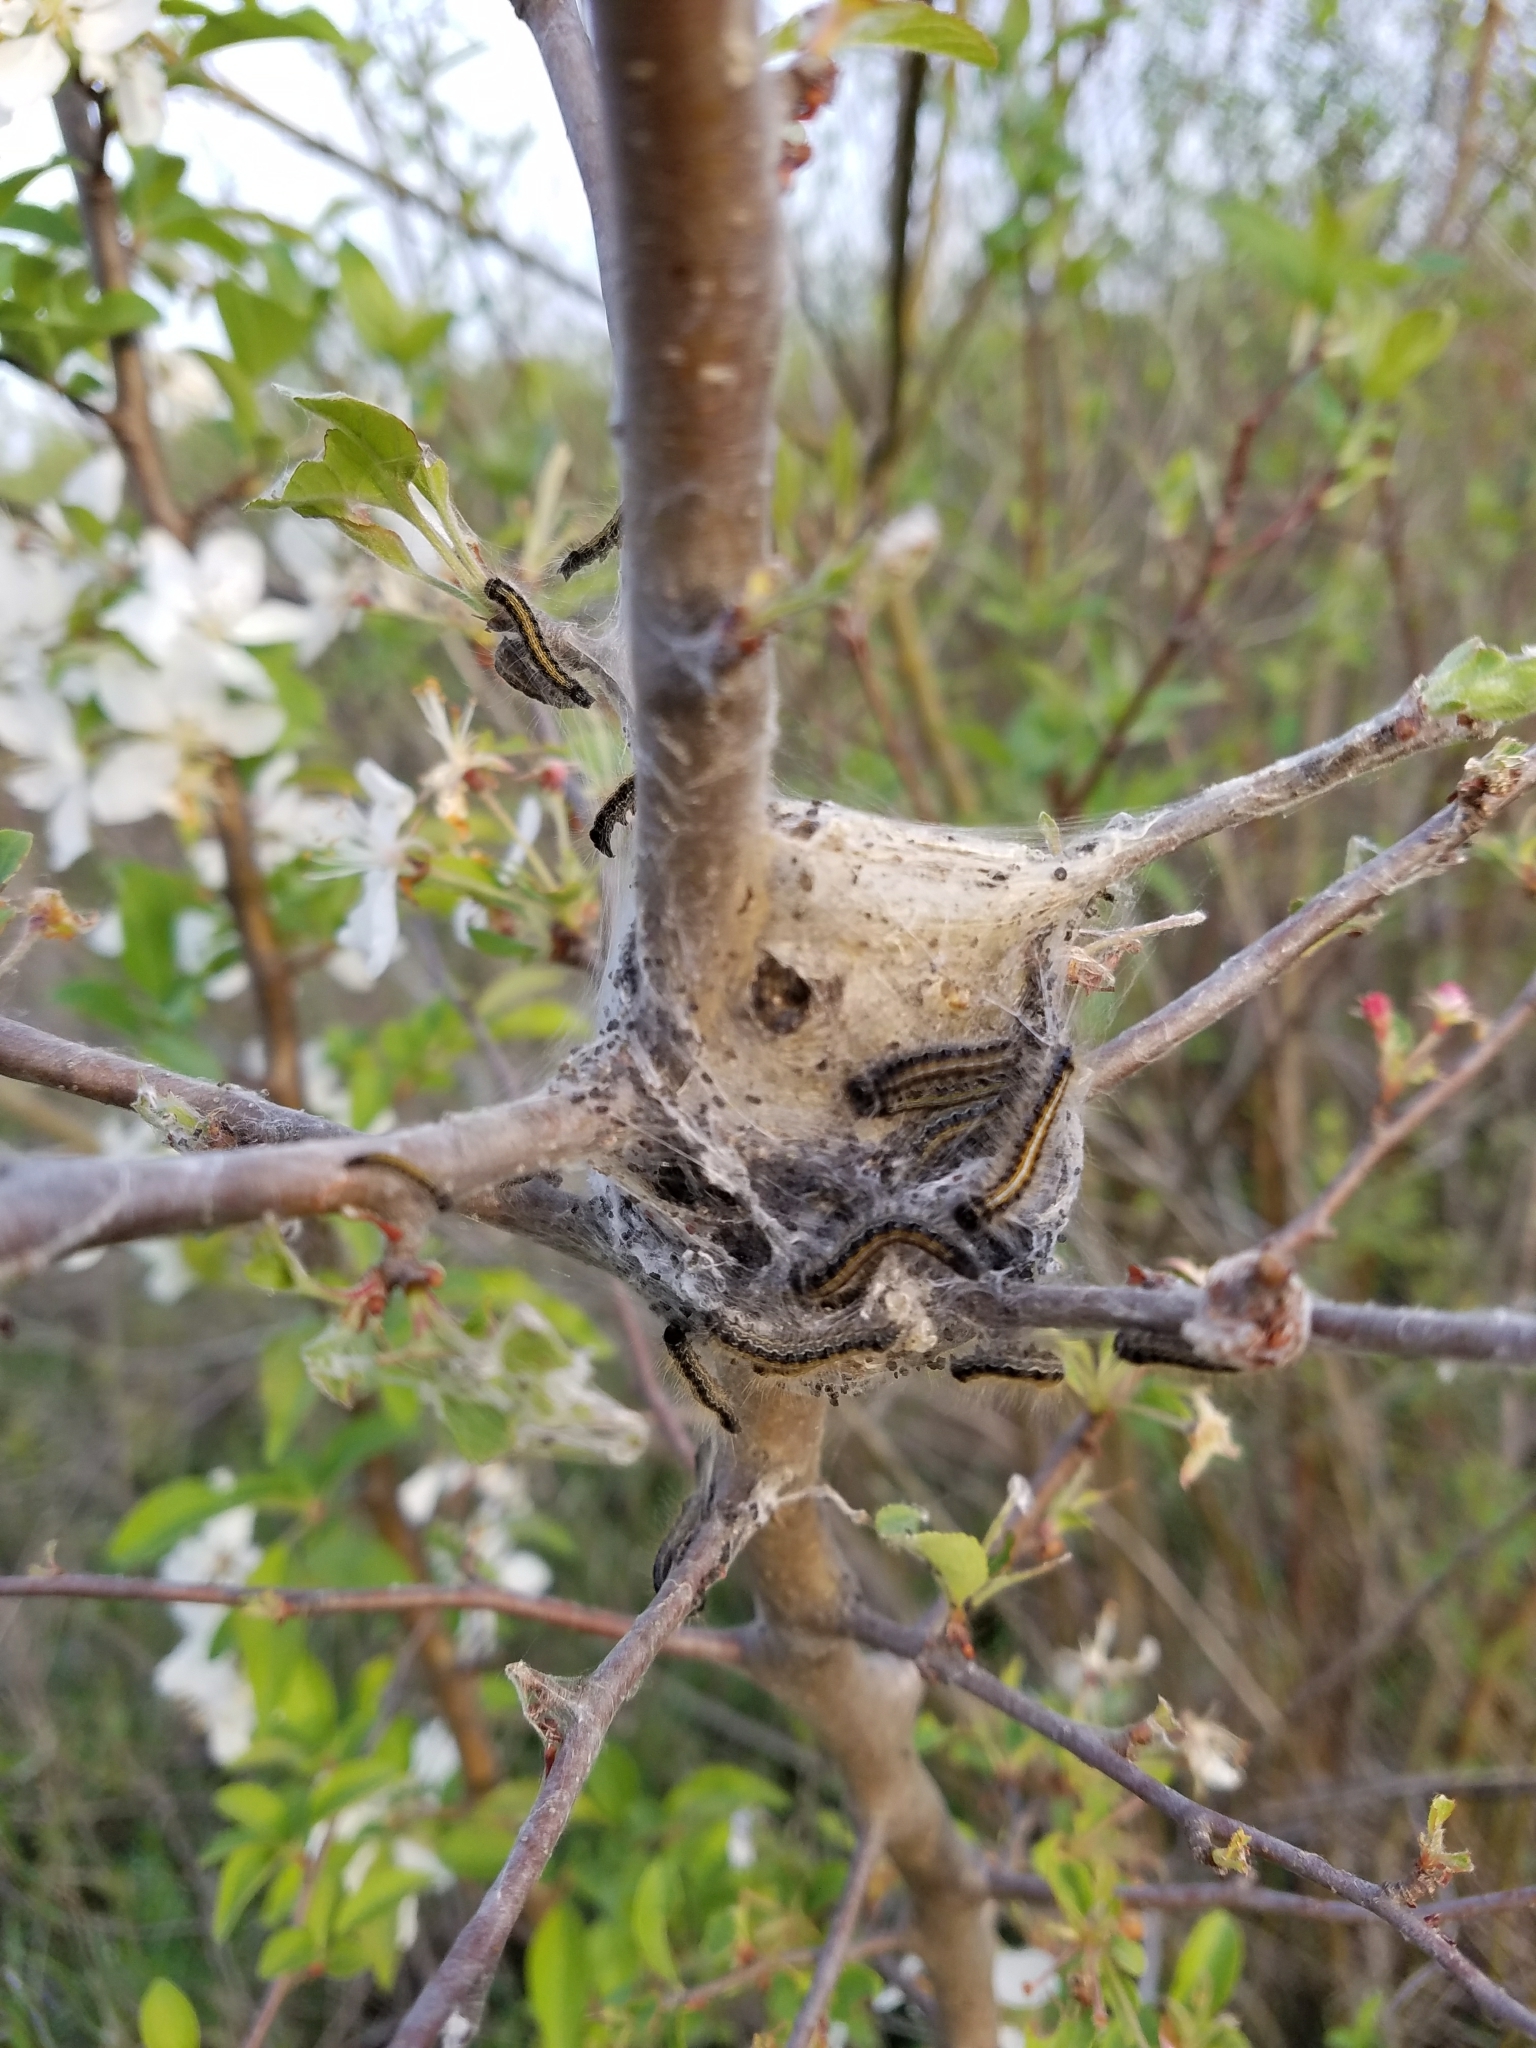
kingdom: Animalia
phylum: Arthropoda
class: Insecta
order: Lepidoptera
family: Lasiocampidae
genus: Malacosoma
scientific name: Malacosoma americana
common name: Eastern tent caterpillar moth
